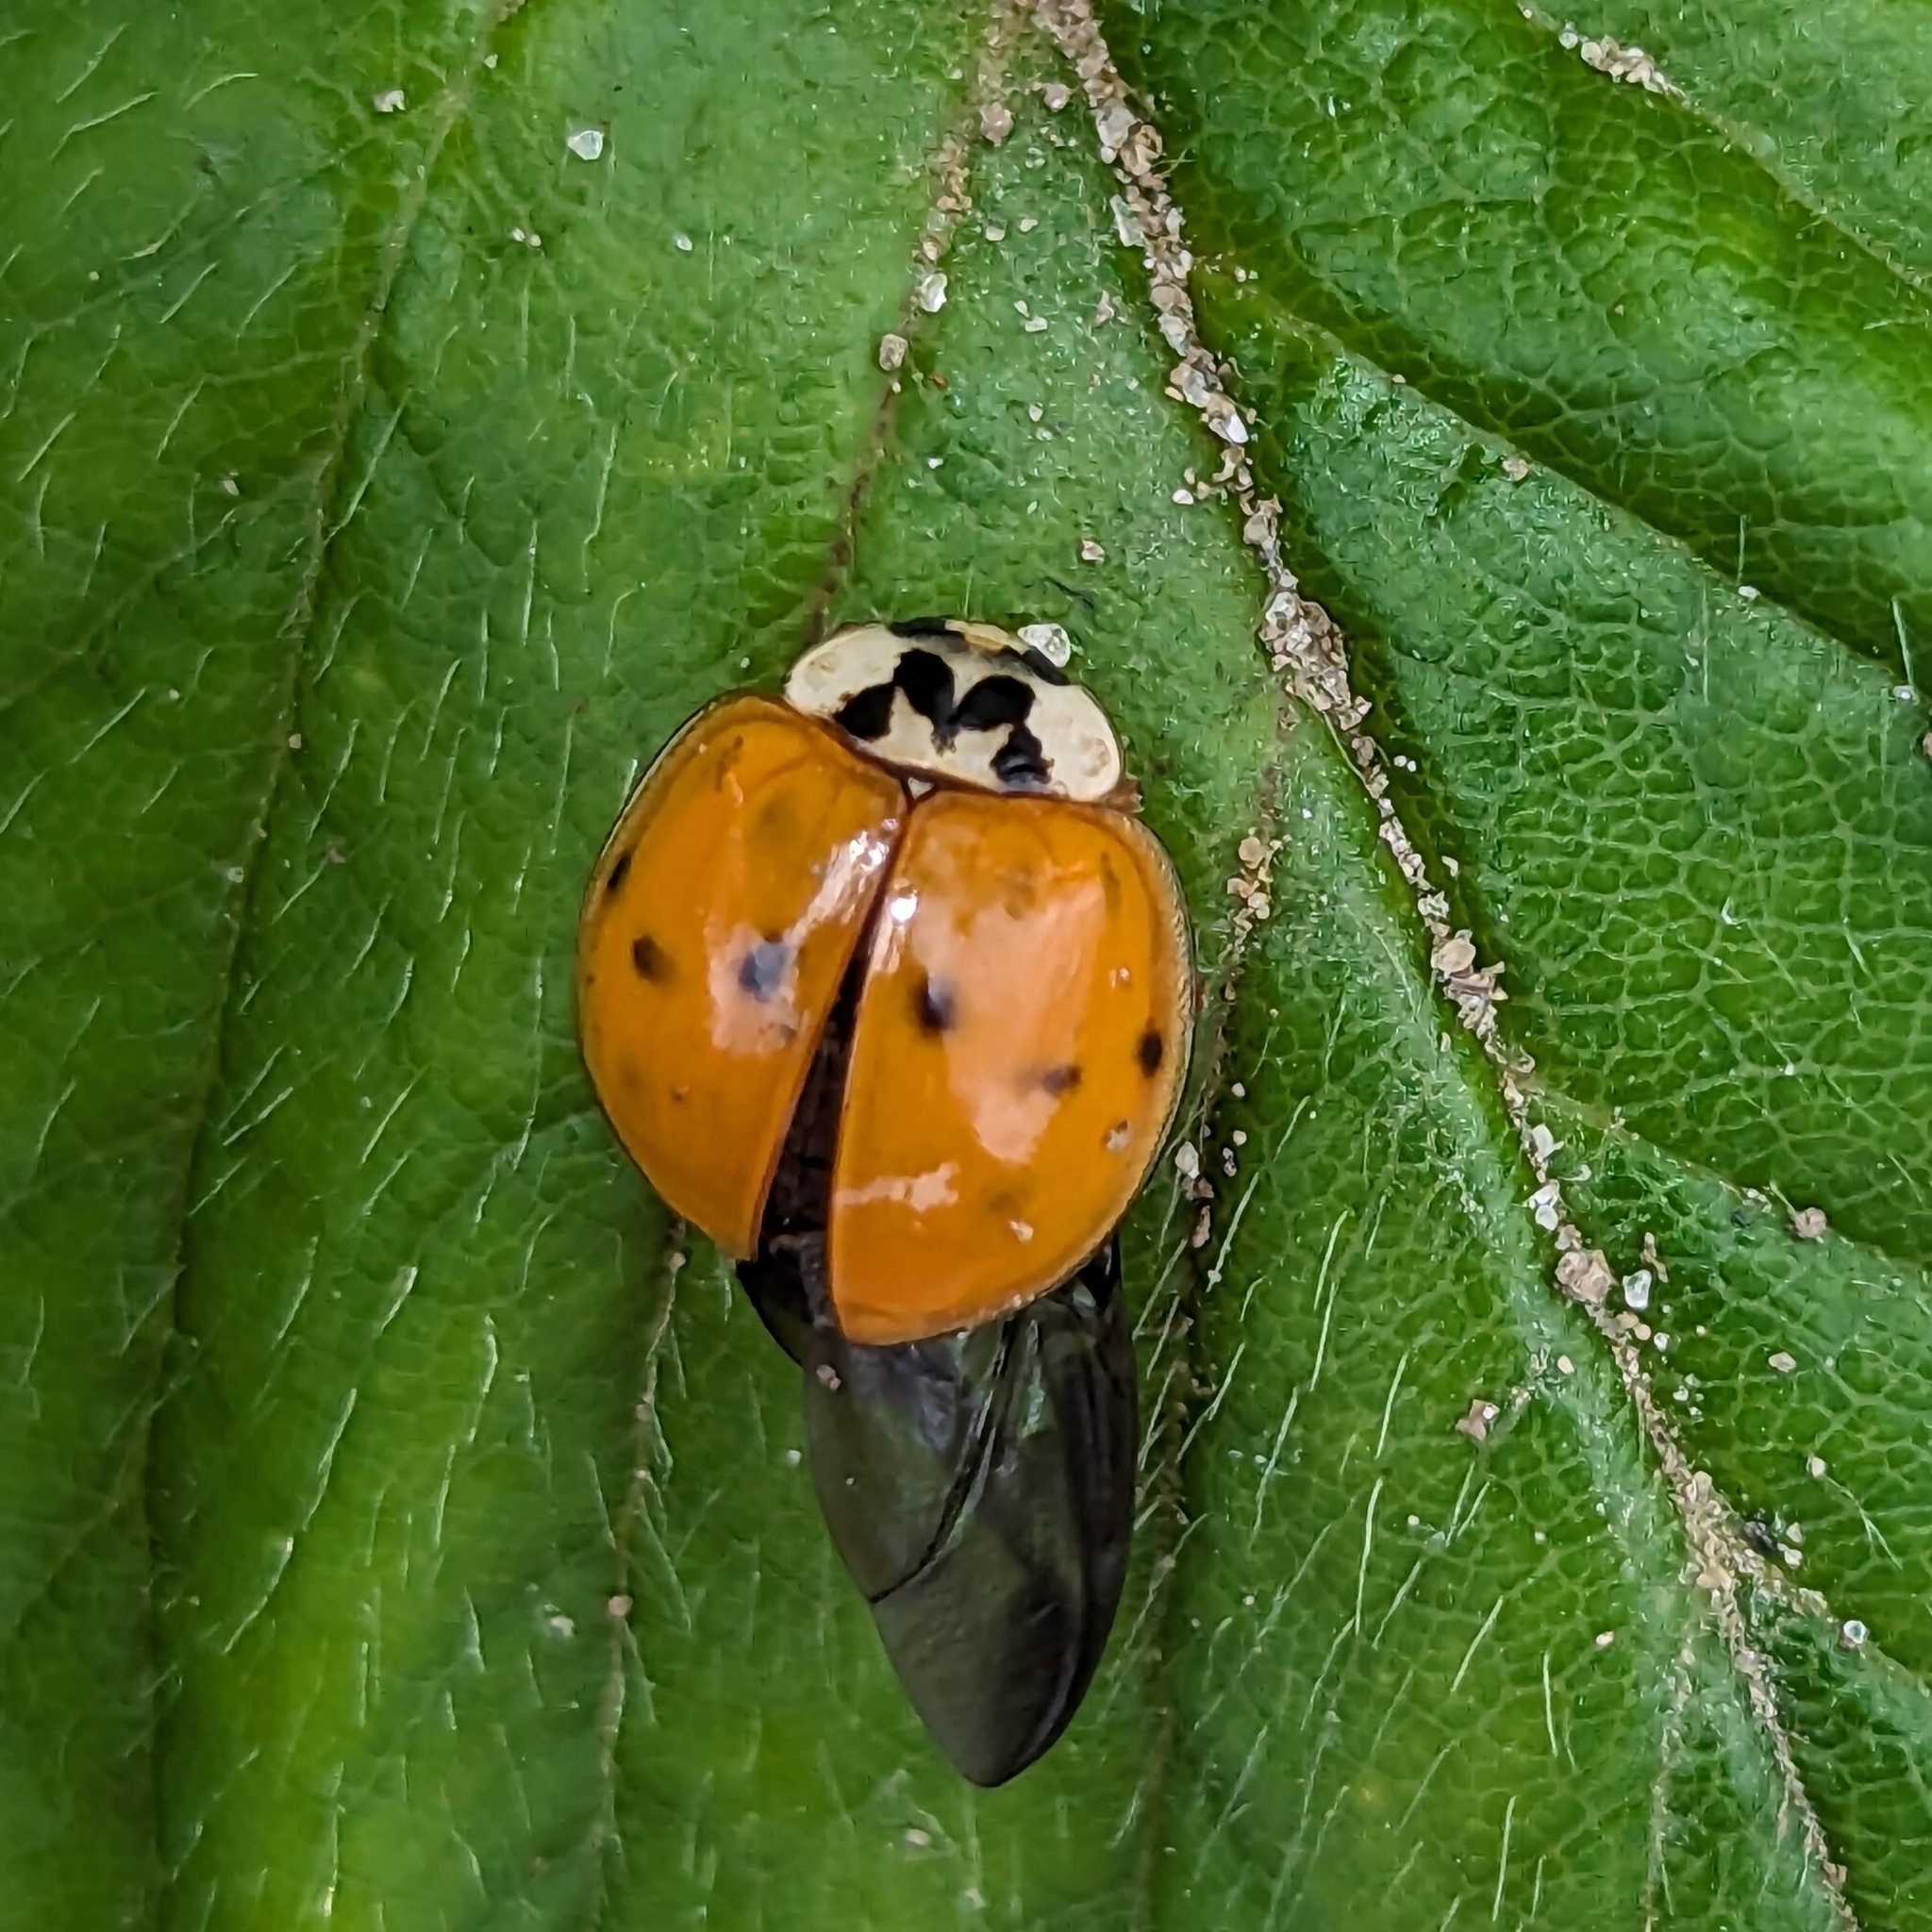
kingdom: Animalia
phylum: Arthropoda
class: Insecta
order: Coleoptera
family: Coccinellidae
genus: Harmonia
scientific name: Harmonia axyridis
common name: Harlequin ladybird
